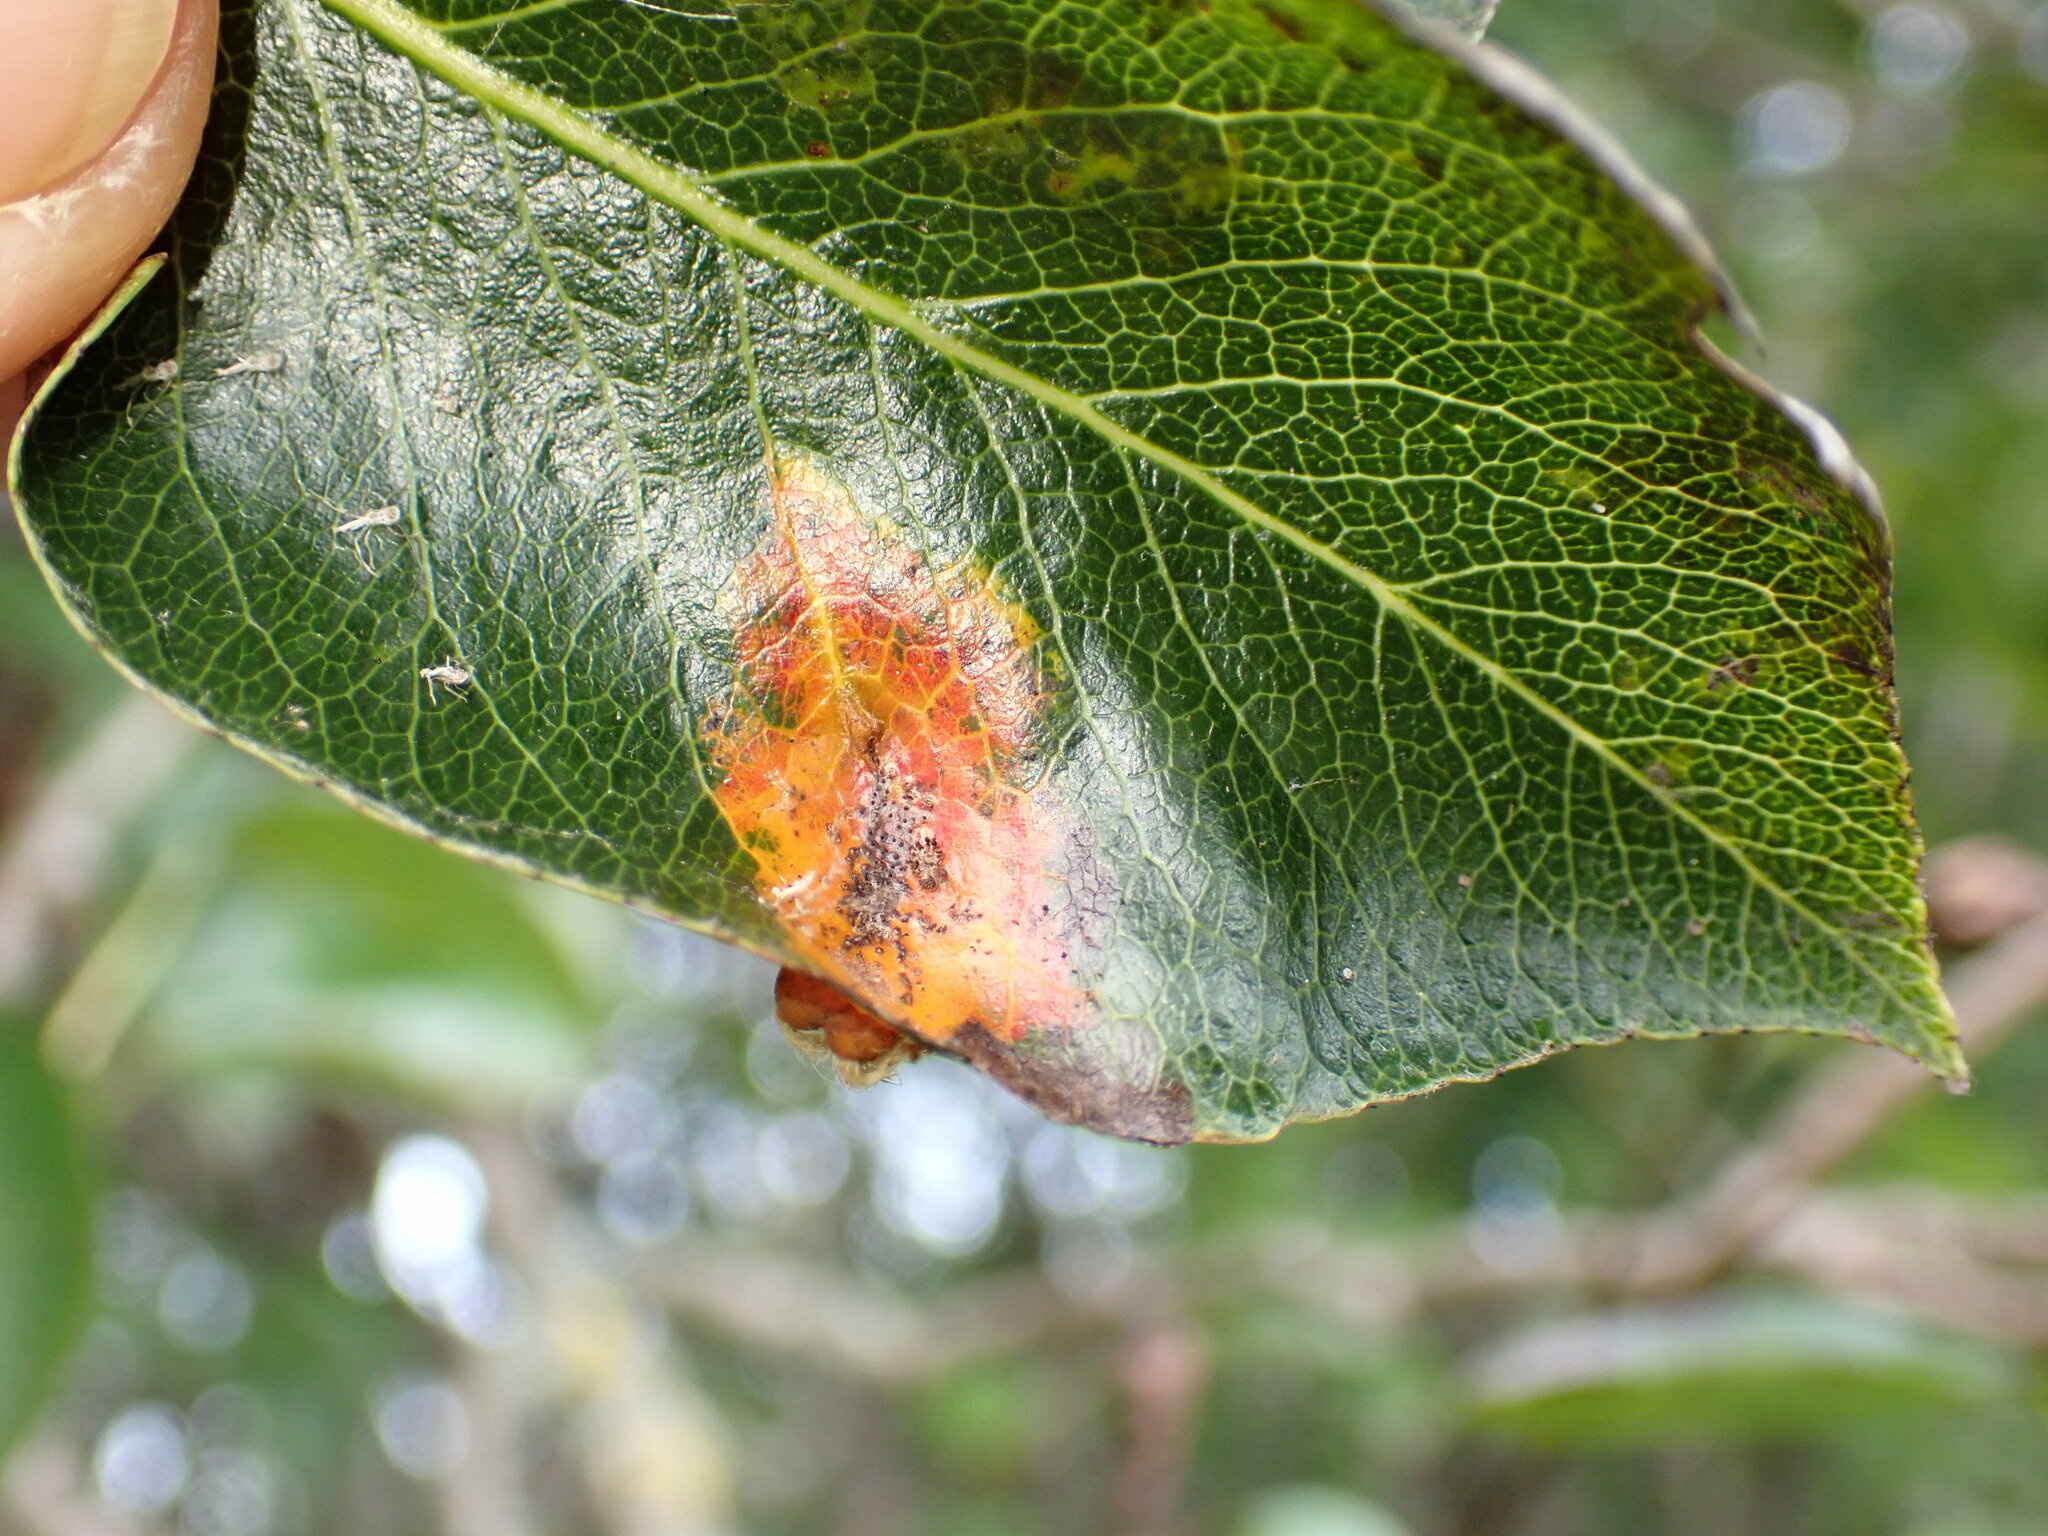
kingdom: Fungi
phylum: Basidiomycota
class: Pucciniomycetes
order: Pucciniales
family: Gymnosporangiaceae
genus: Gymnosporangium
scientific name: Gymnosporangium sabinae
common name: Pear trellis rust fungus
